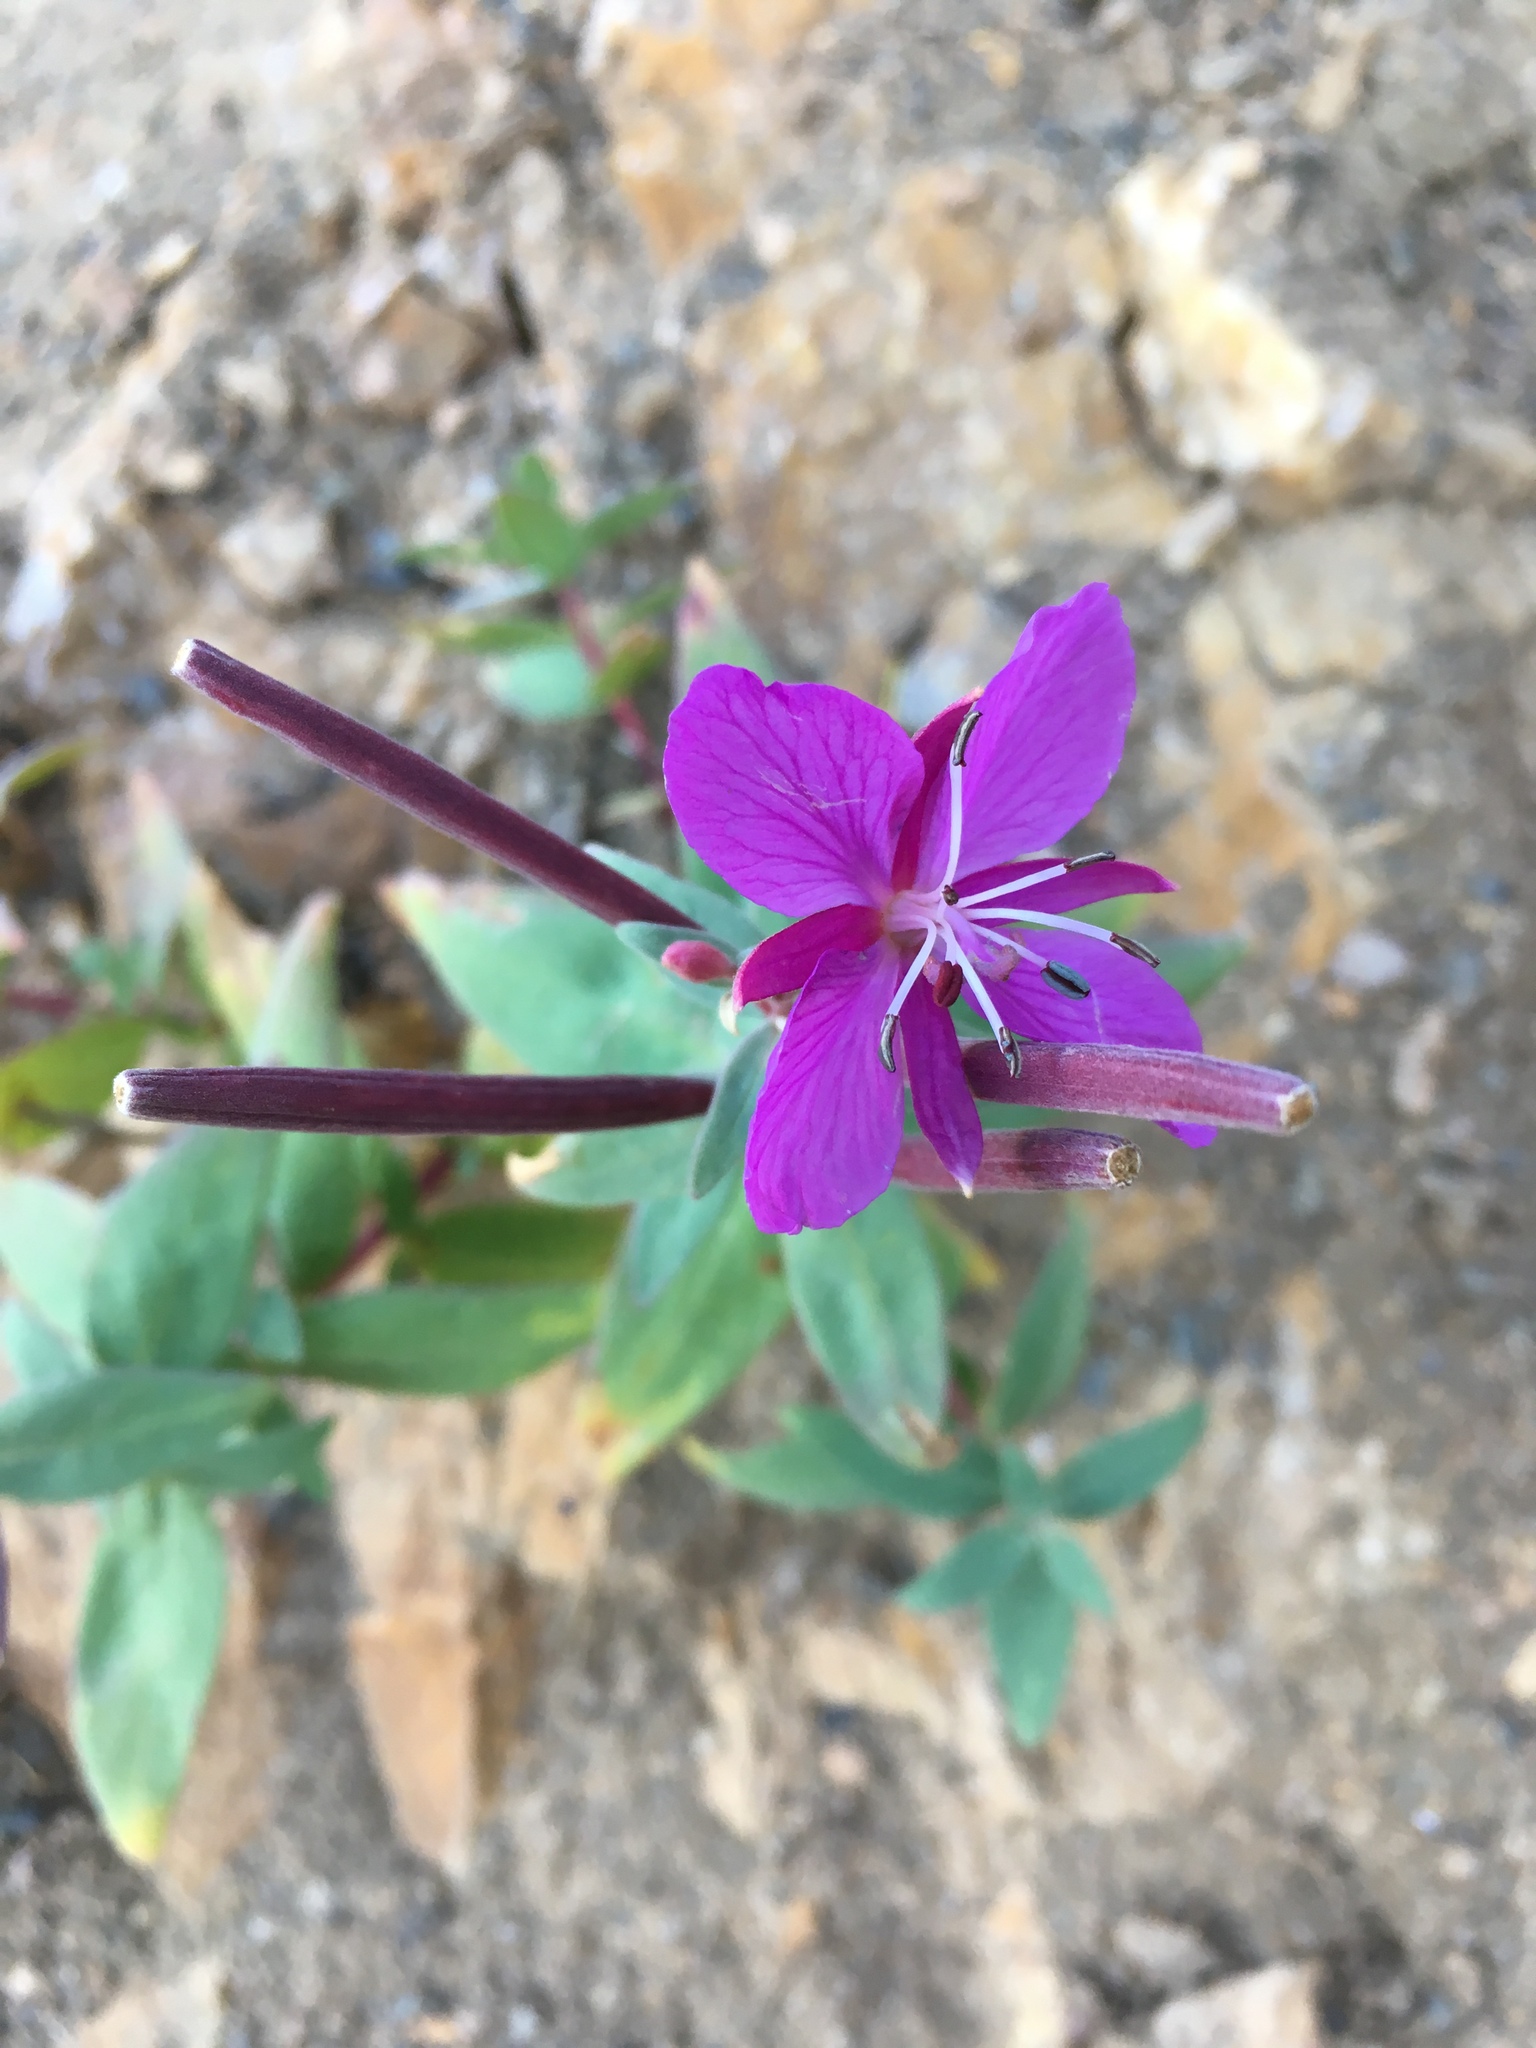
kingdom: Plantae
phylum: Tracheophyta
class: Magnoliopsida
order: Myrtales
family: Onagraceae
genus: Chamaenerion
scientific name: Chamaenerion latifolium
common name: Dwarf fireweed
